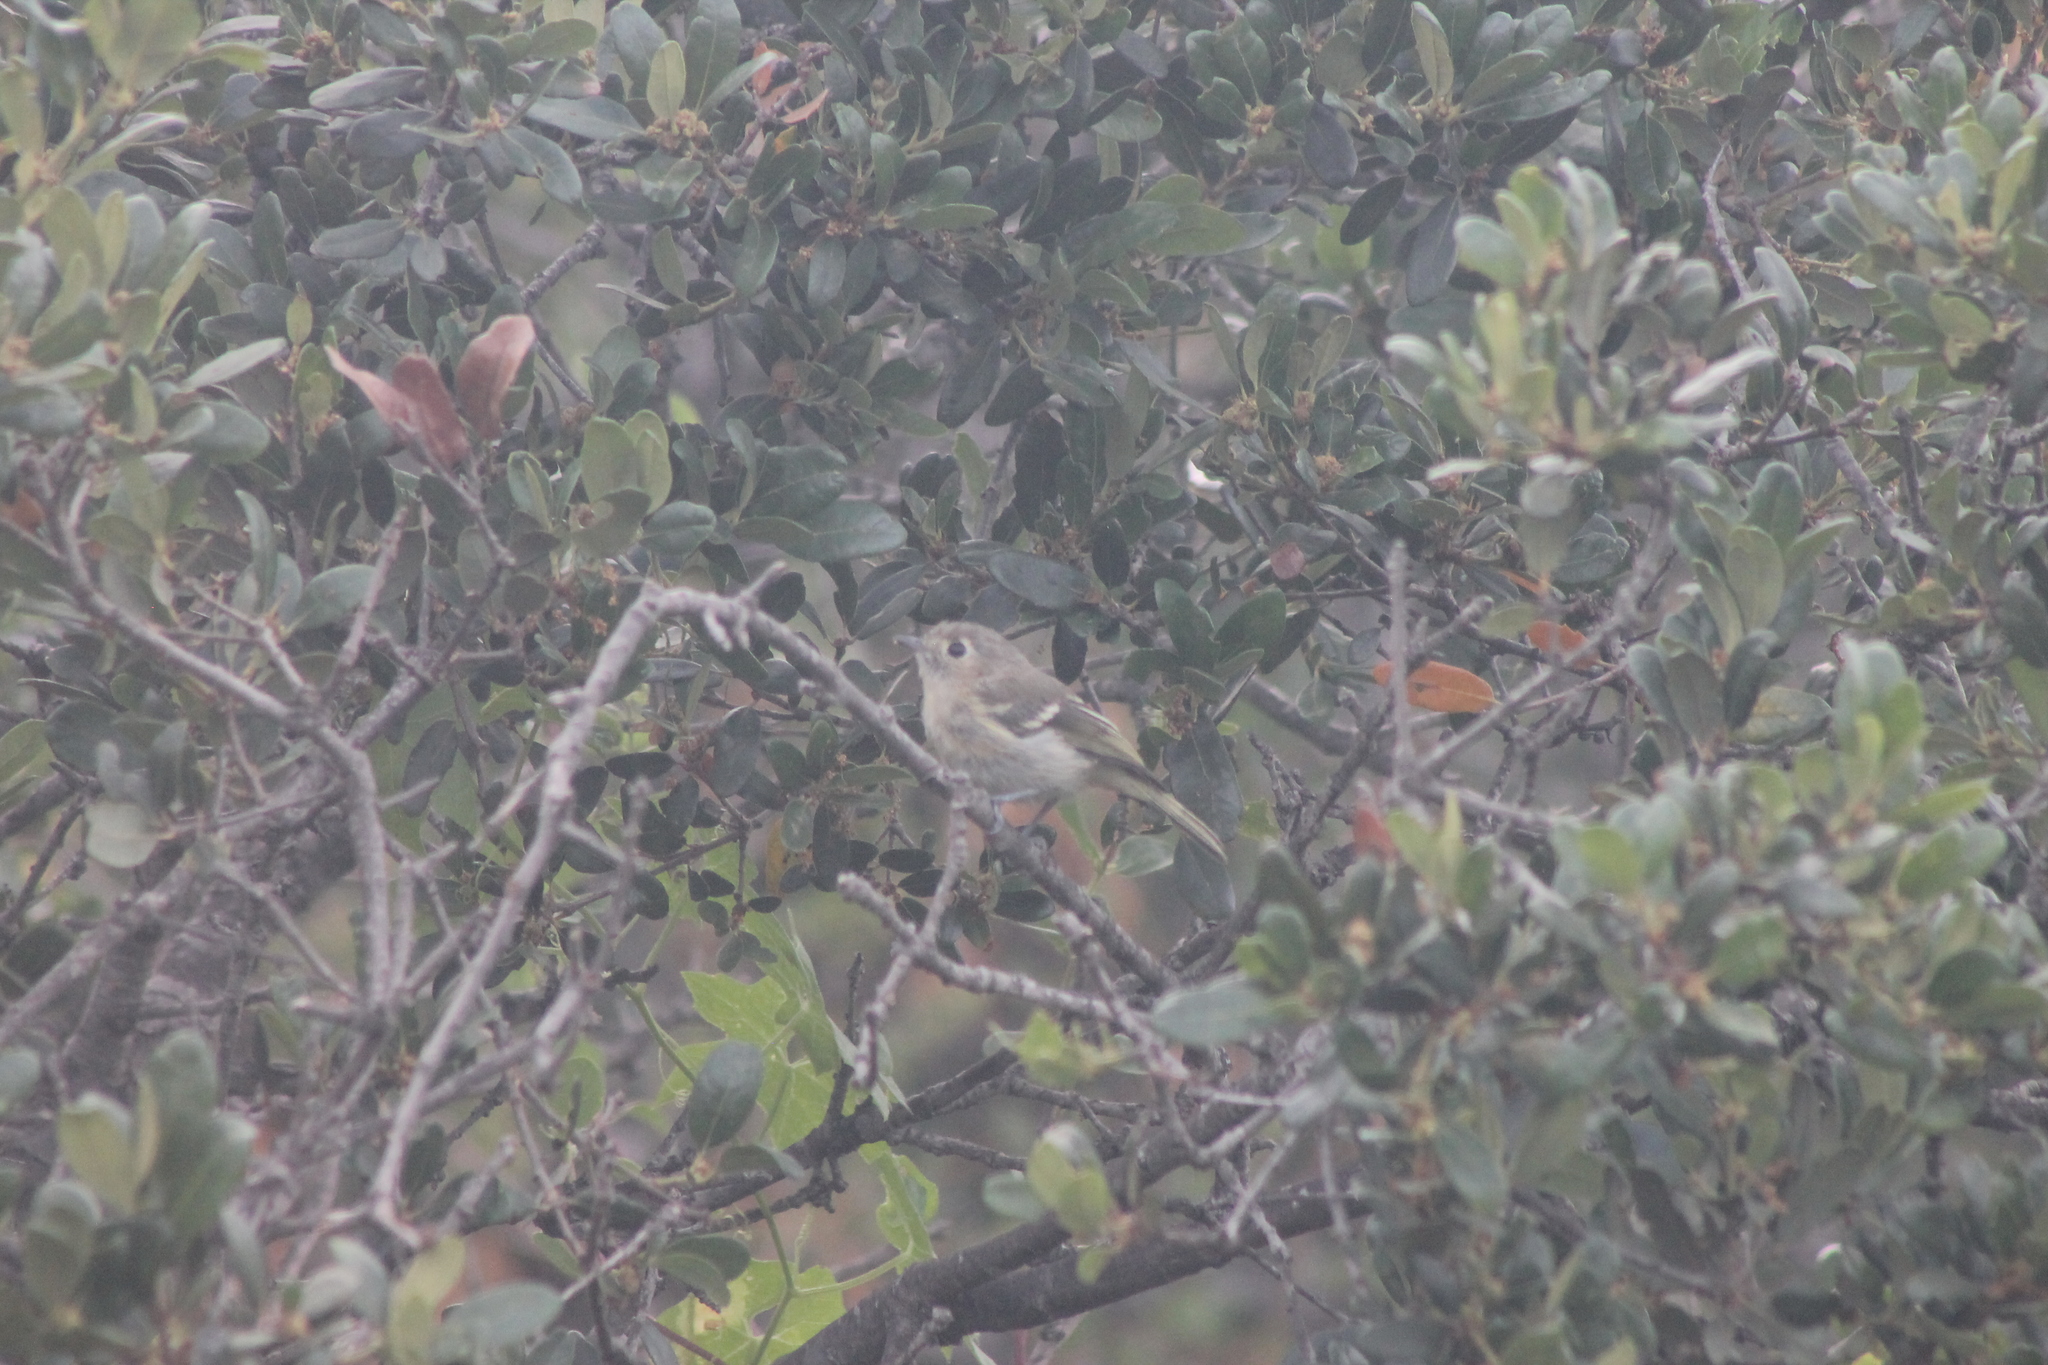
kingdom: Animalia
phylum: Chordata
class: Aves
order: Passeriformes
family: Vireonidae
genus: Vireo
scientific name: Vireo huttoni
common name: Hutton's vireo
